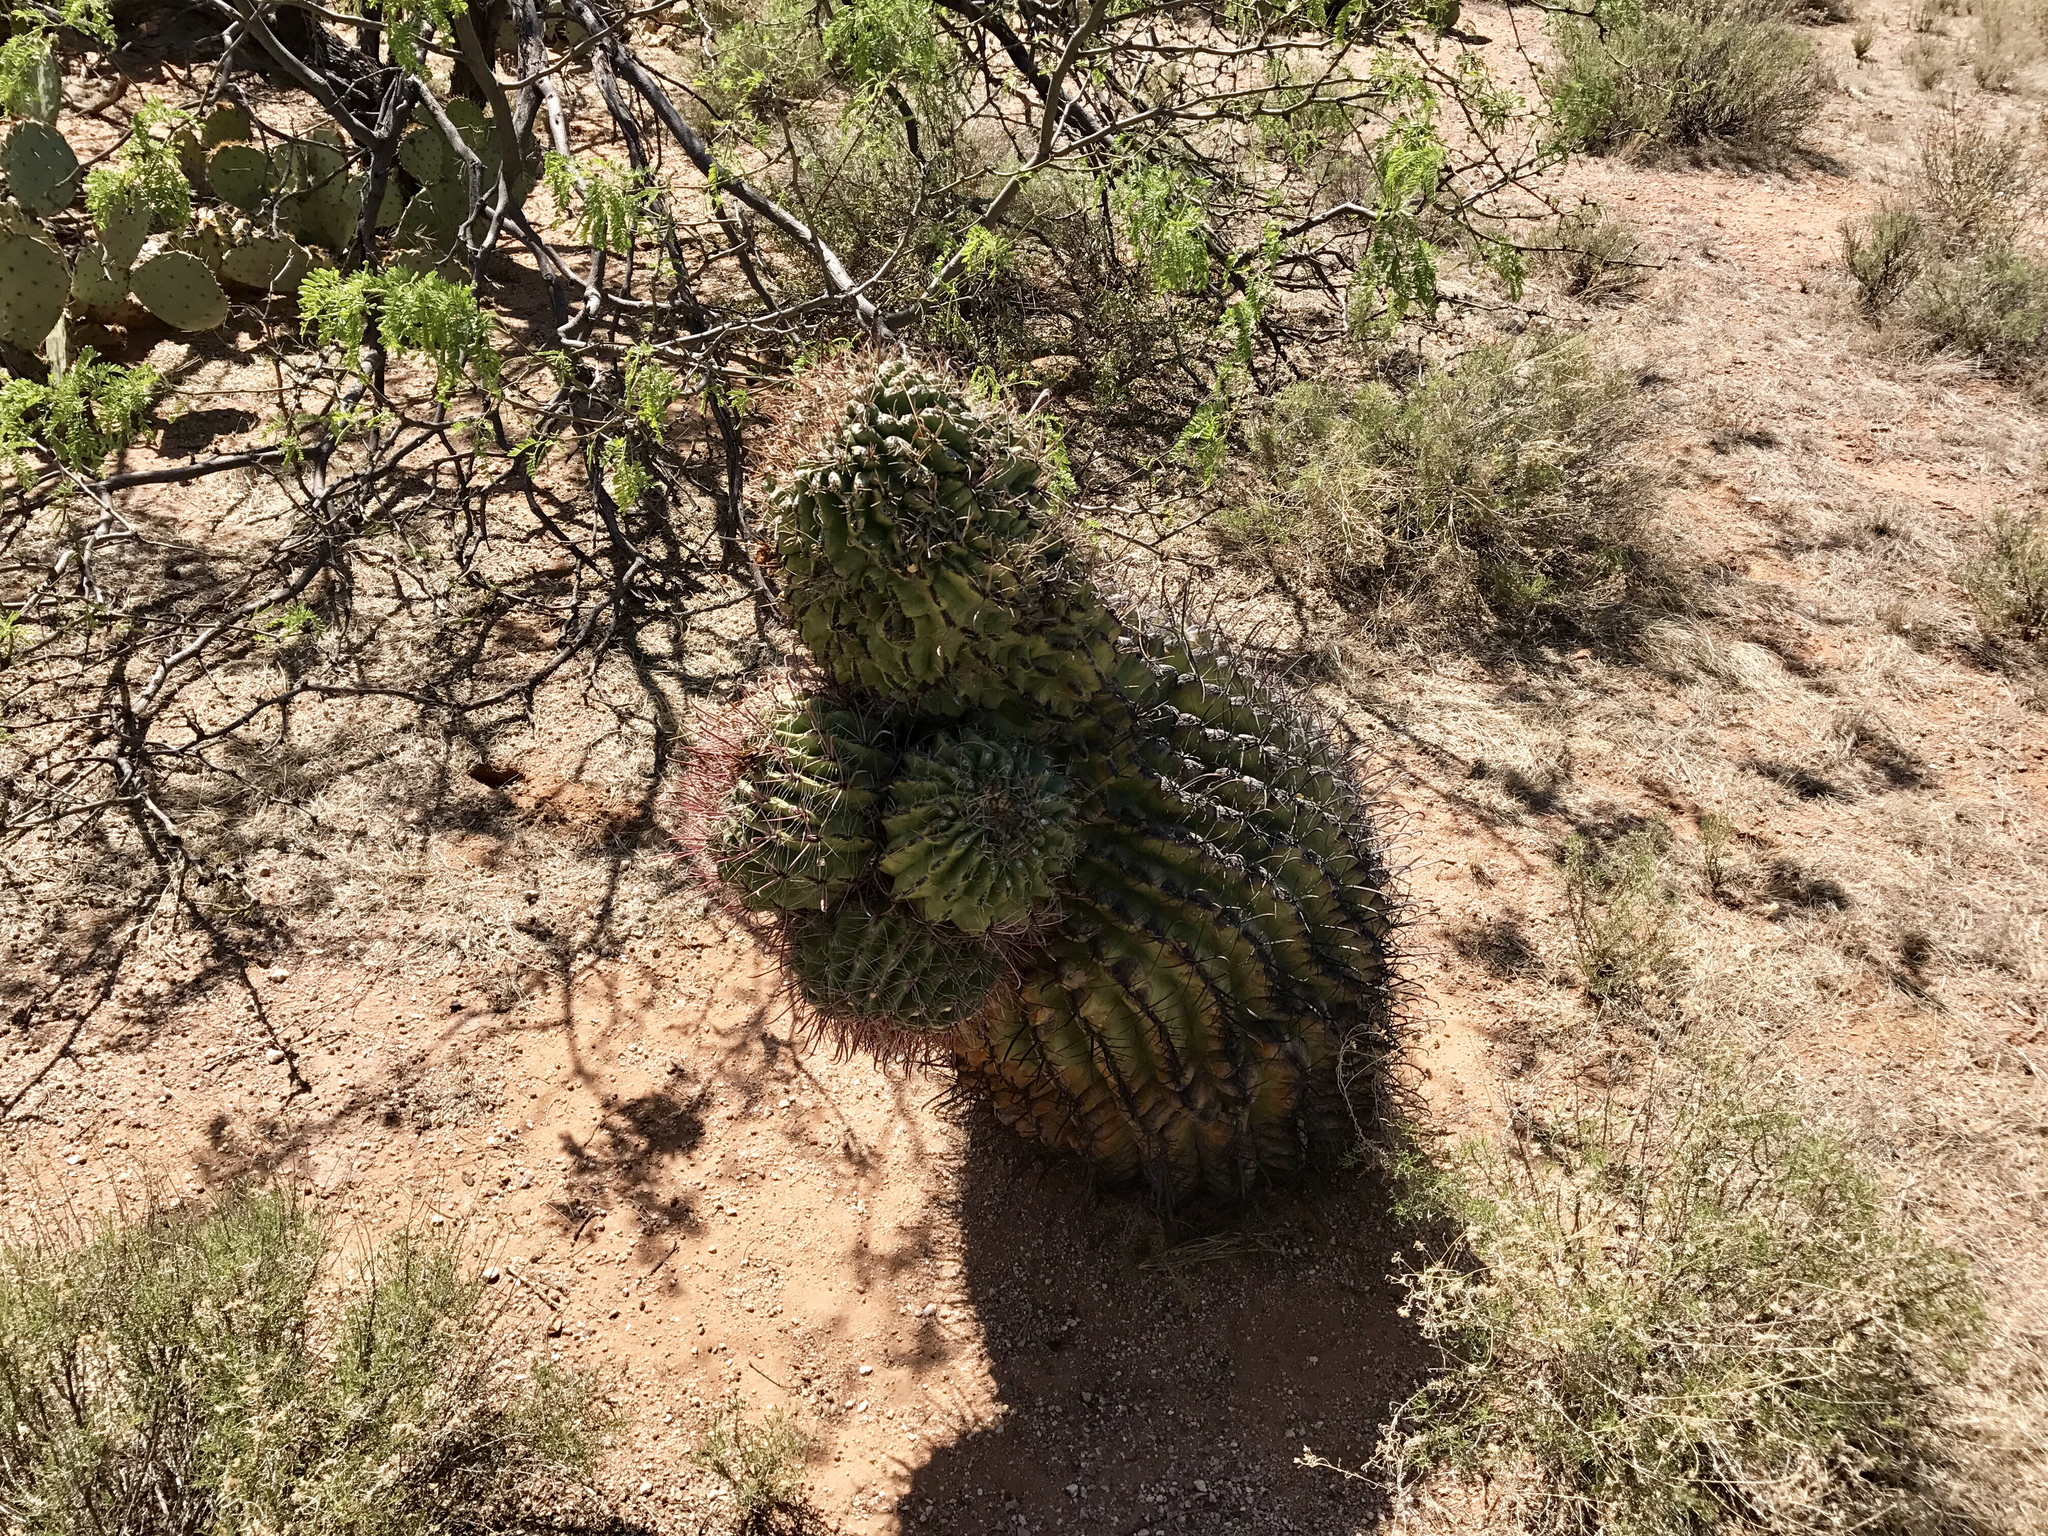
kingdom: Plantae
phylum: Tracheophyta
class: Magnoliopsida
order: Caryophyllales
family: Cactaceae
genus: Ferocactus
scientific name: Ferocactus wislizeni
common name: Candy barrel cactus
